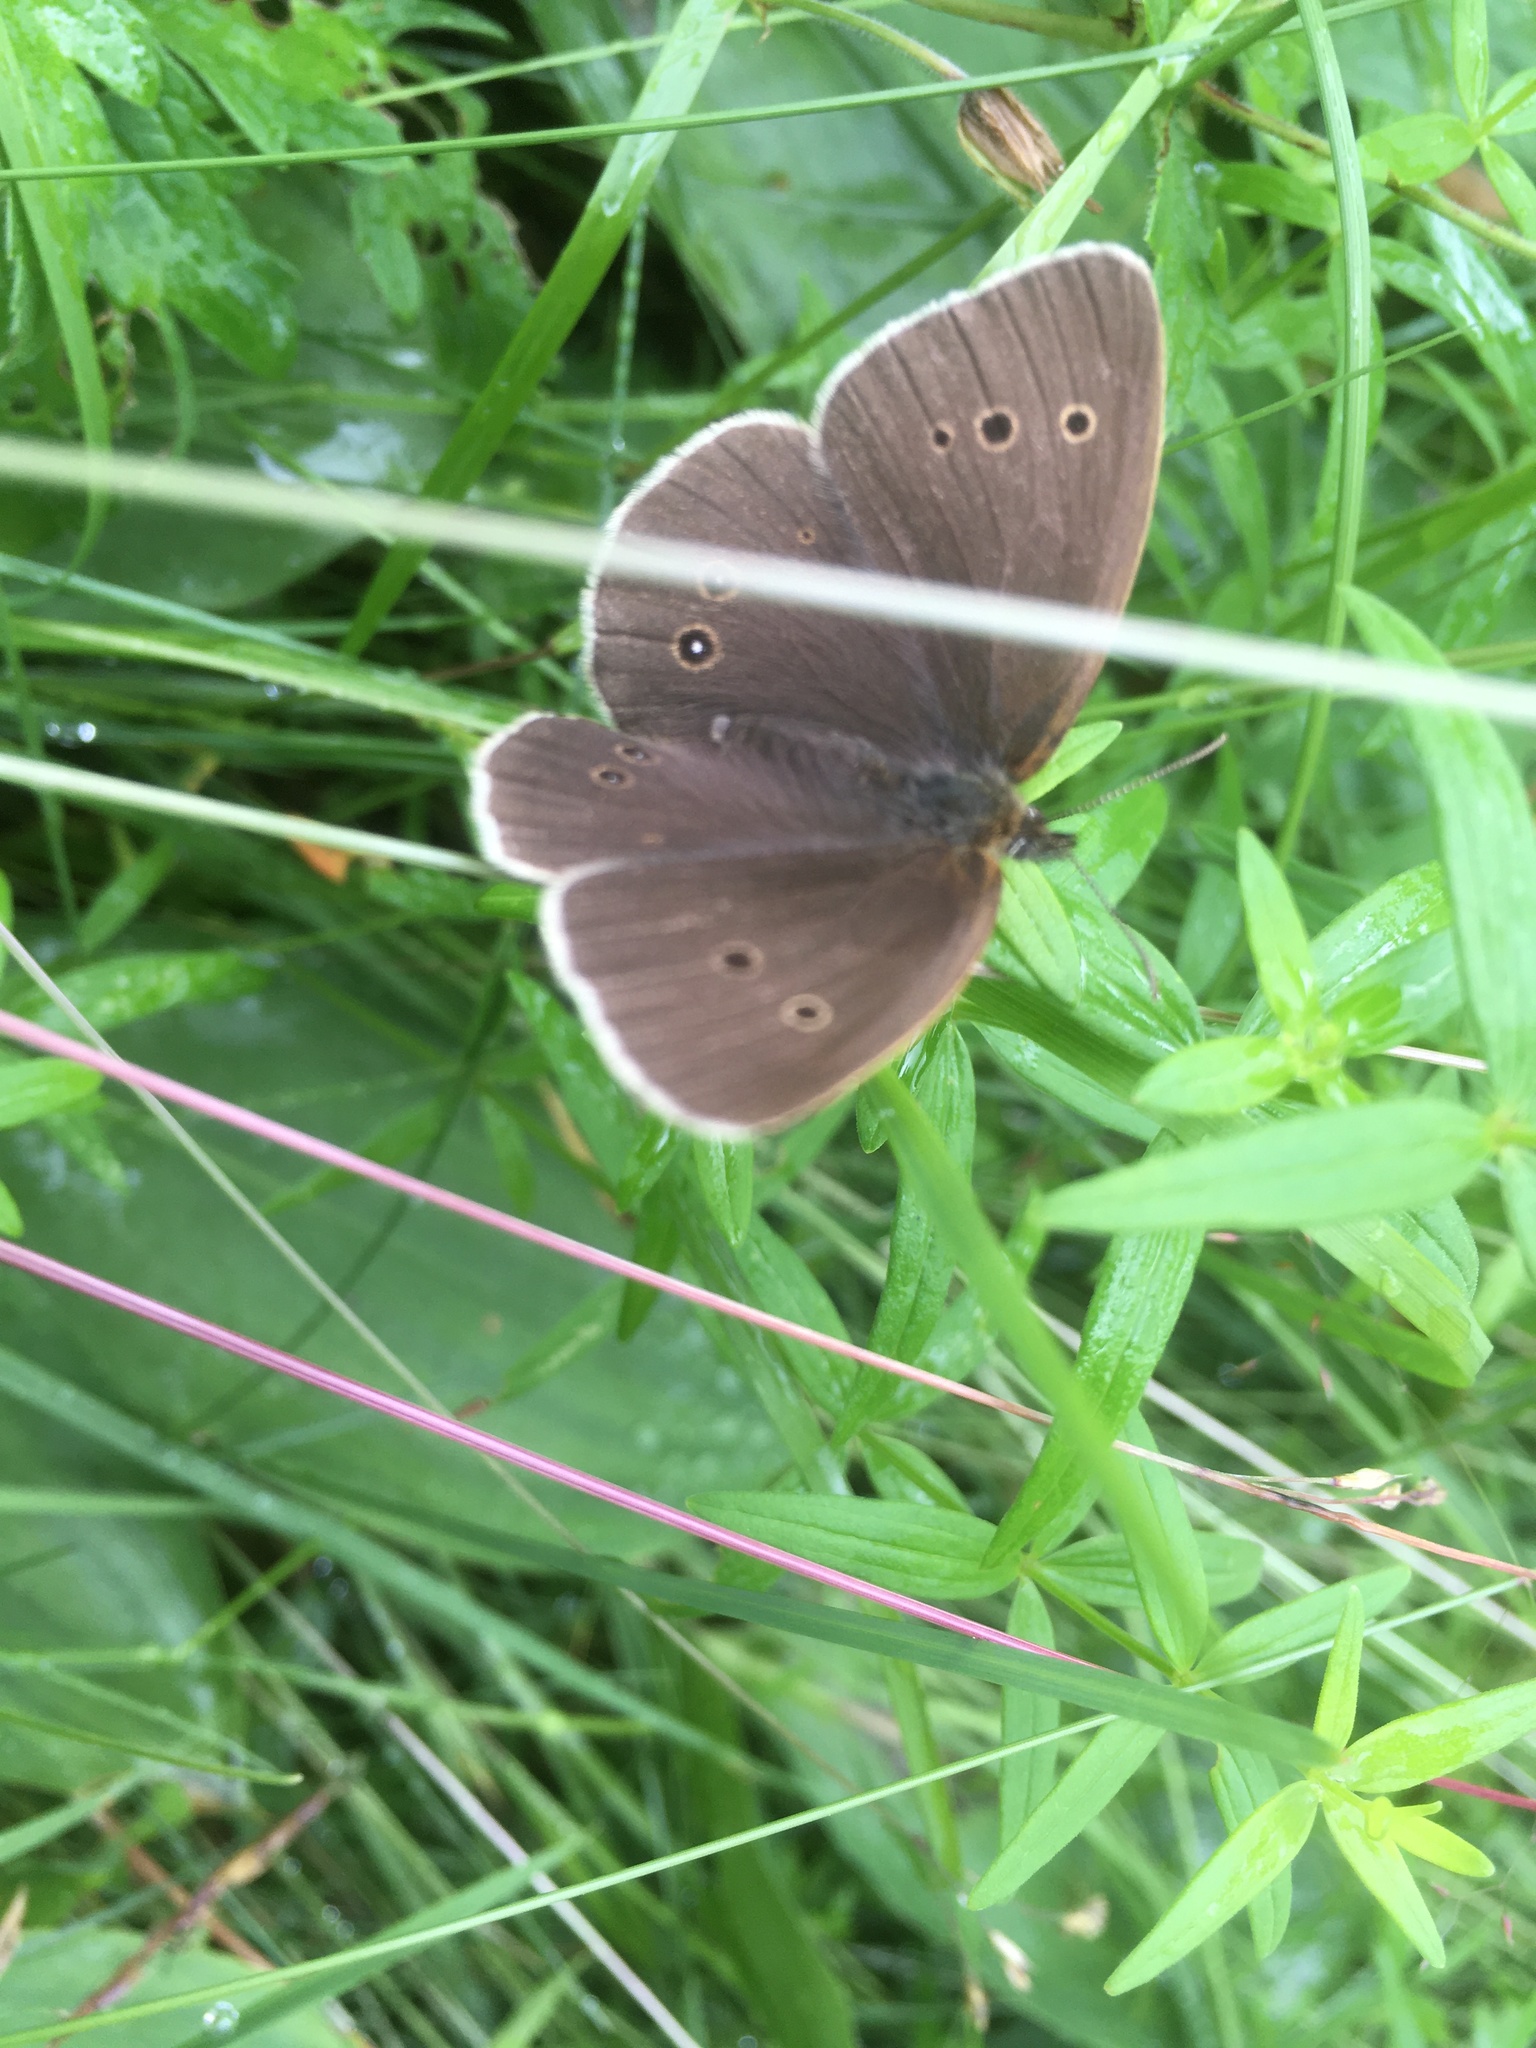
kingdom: Animalia
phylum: Arthropoda
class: Insecta
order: Lepidoptera
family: Nymphalidae
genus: Aphantopus
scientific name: Aphantopus hyperantus
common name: Ringlet
